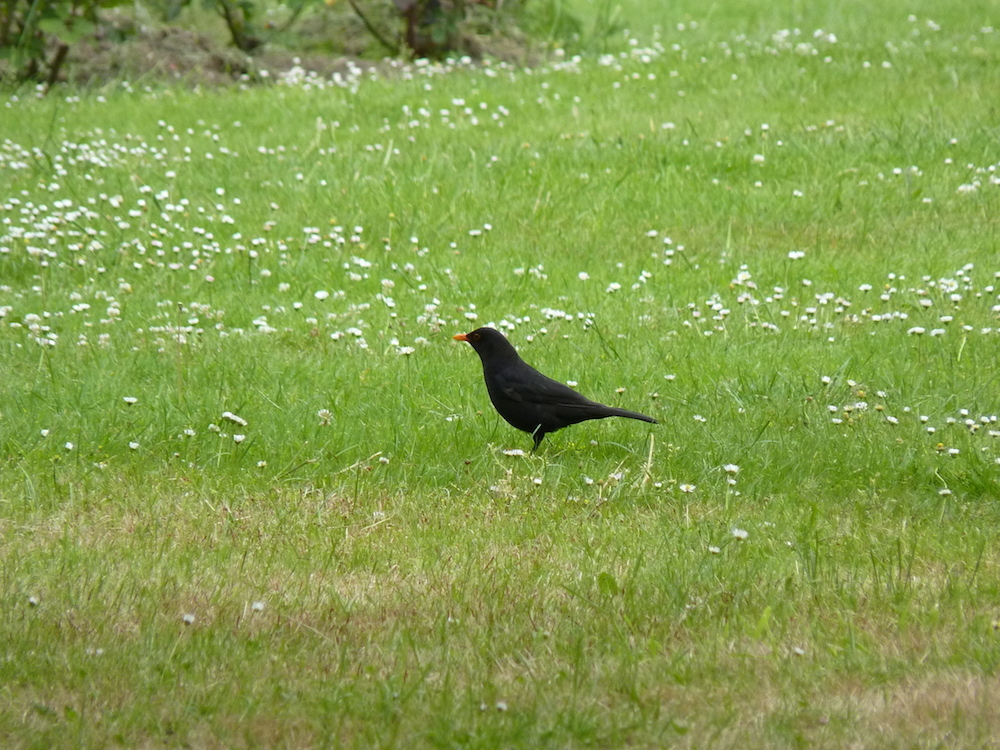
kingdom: Animalia
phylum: Chordata
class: Aves
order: Passeriformes
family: Turdidae
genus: Turdus
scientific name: Turdus merula
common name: Common blackbird
